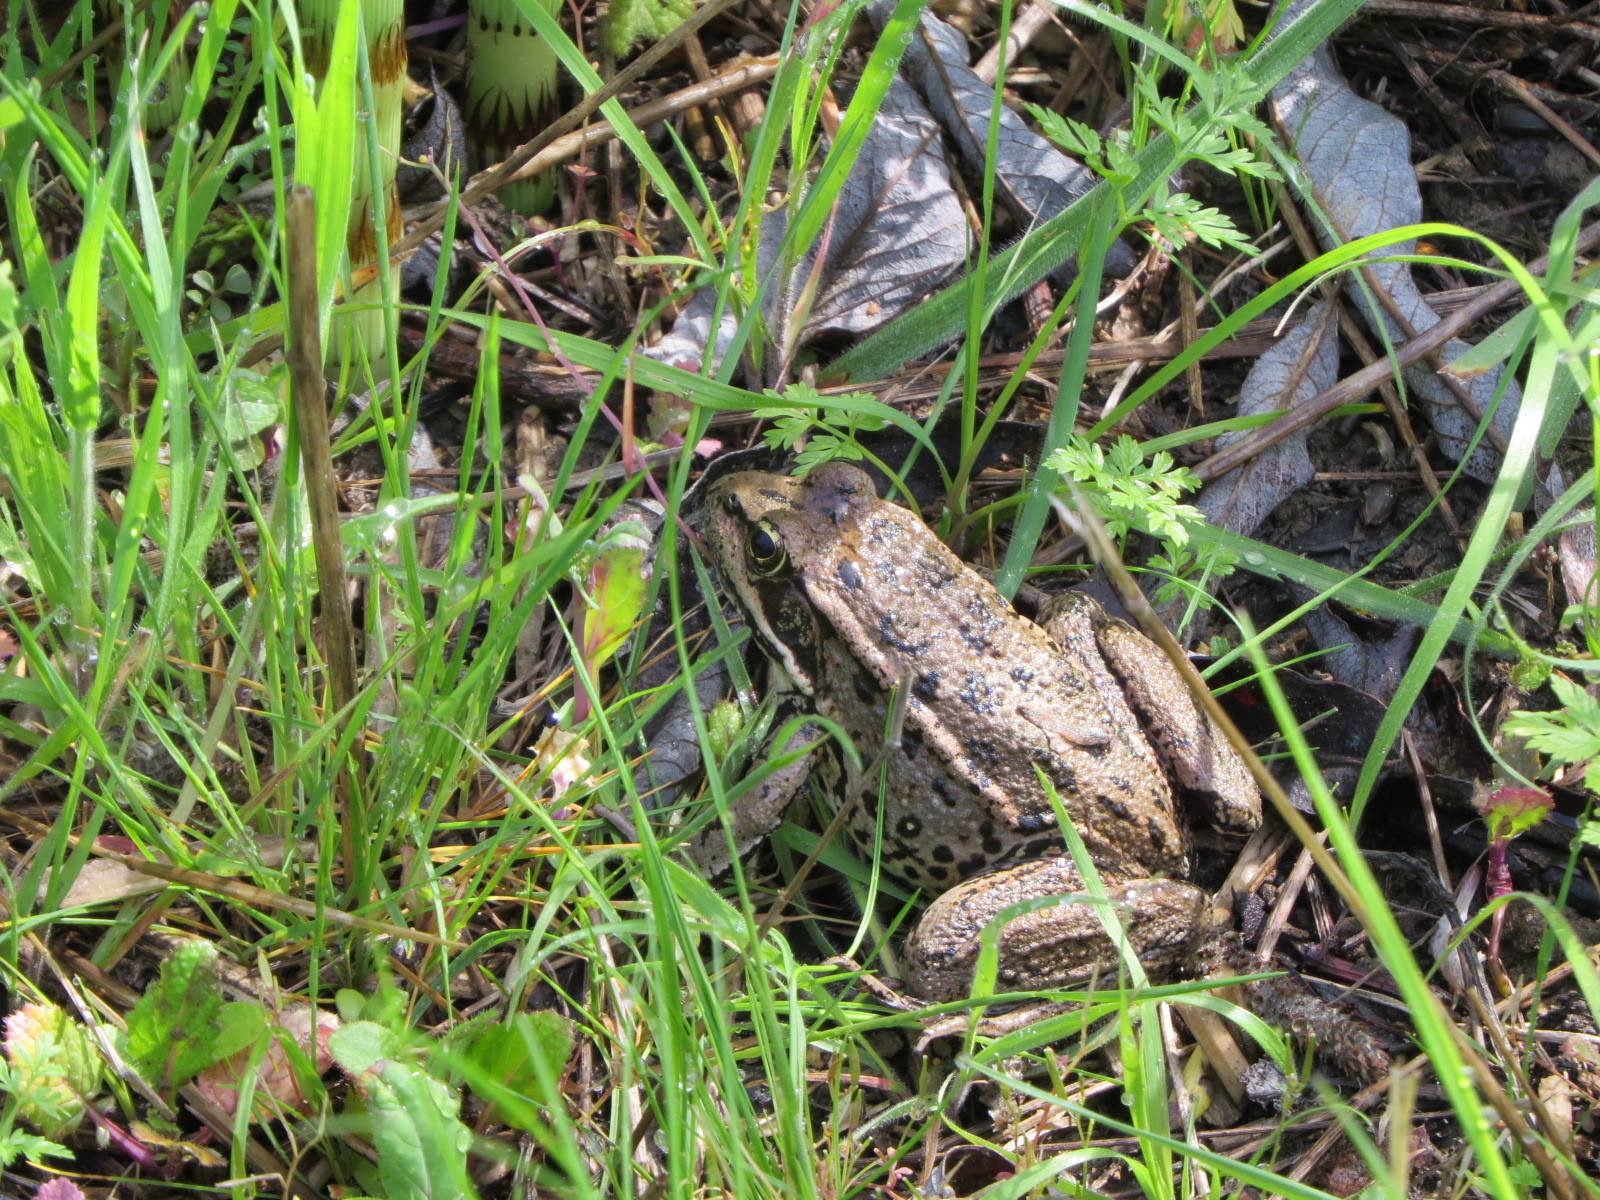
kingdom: Animalia
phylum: Chordata
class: Amphibia
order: Anura
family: Ranidae
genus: Rana
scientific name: Rana draytonii
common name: California red-legged frog
